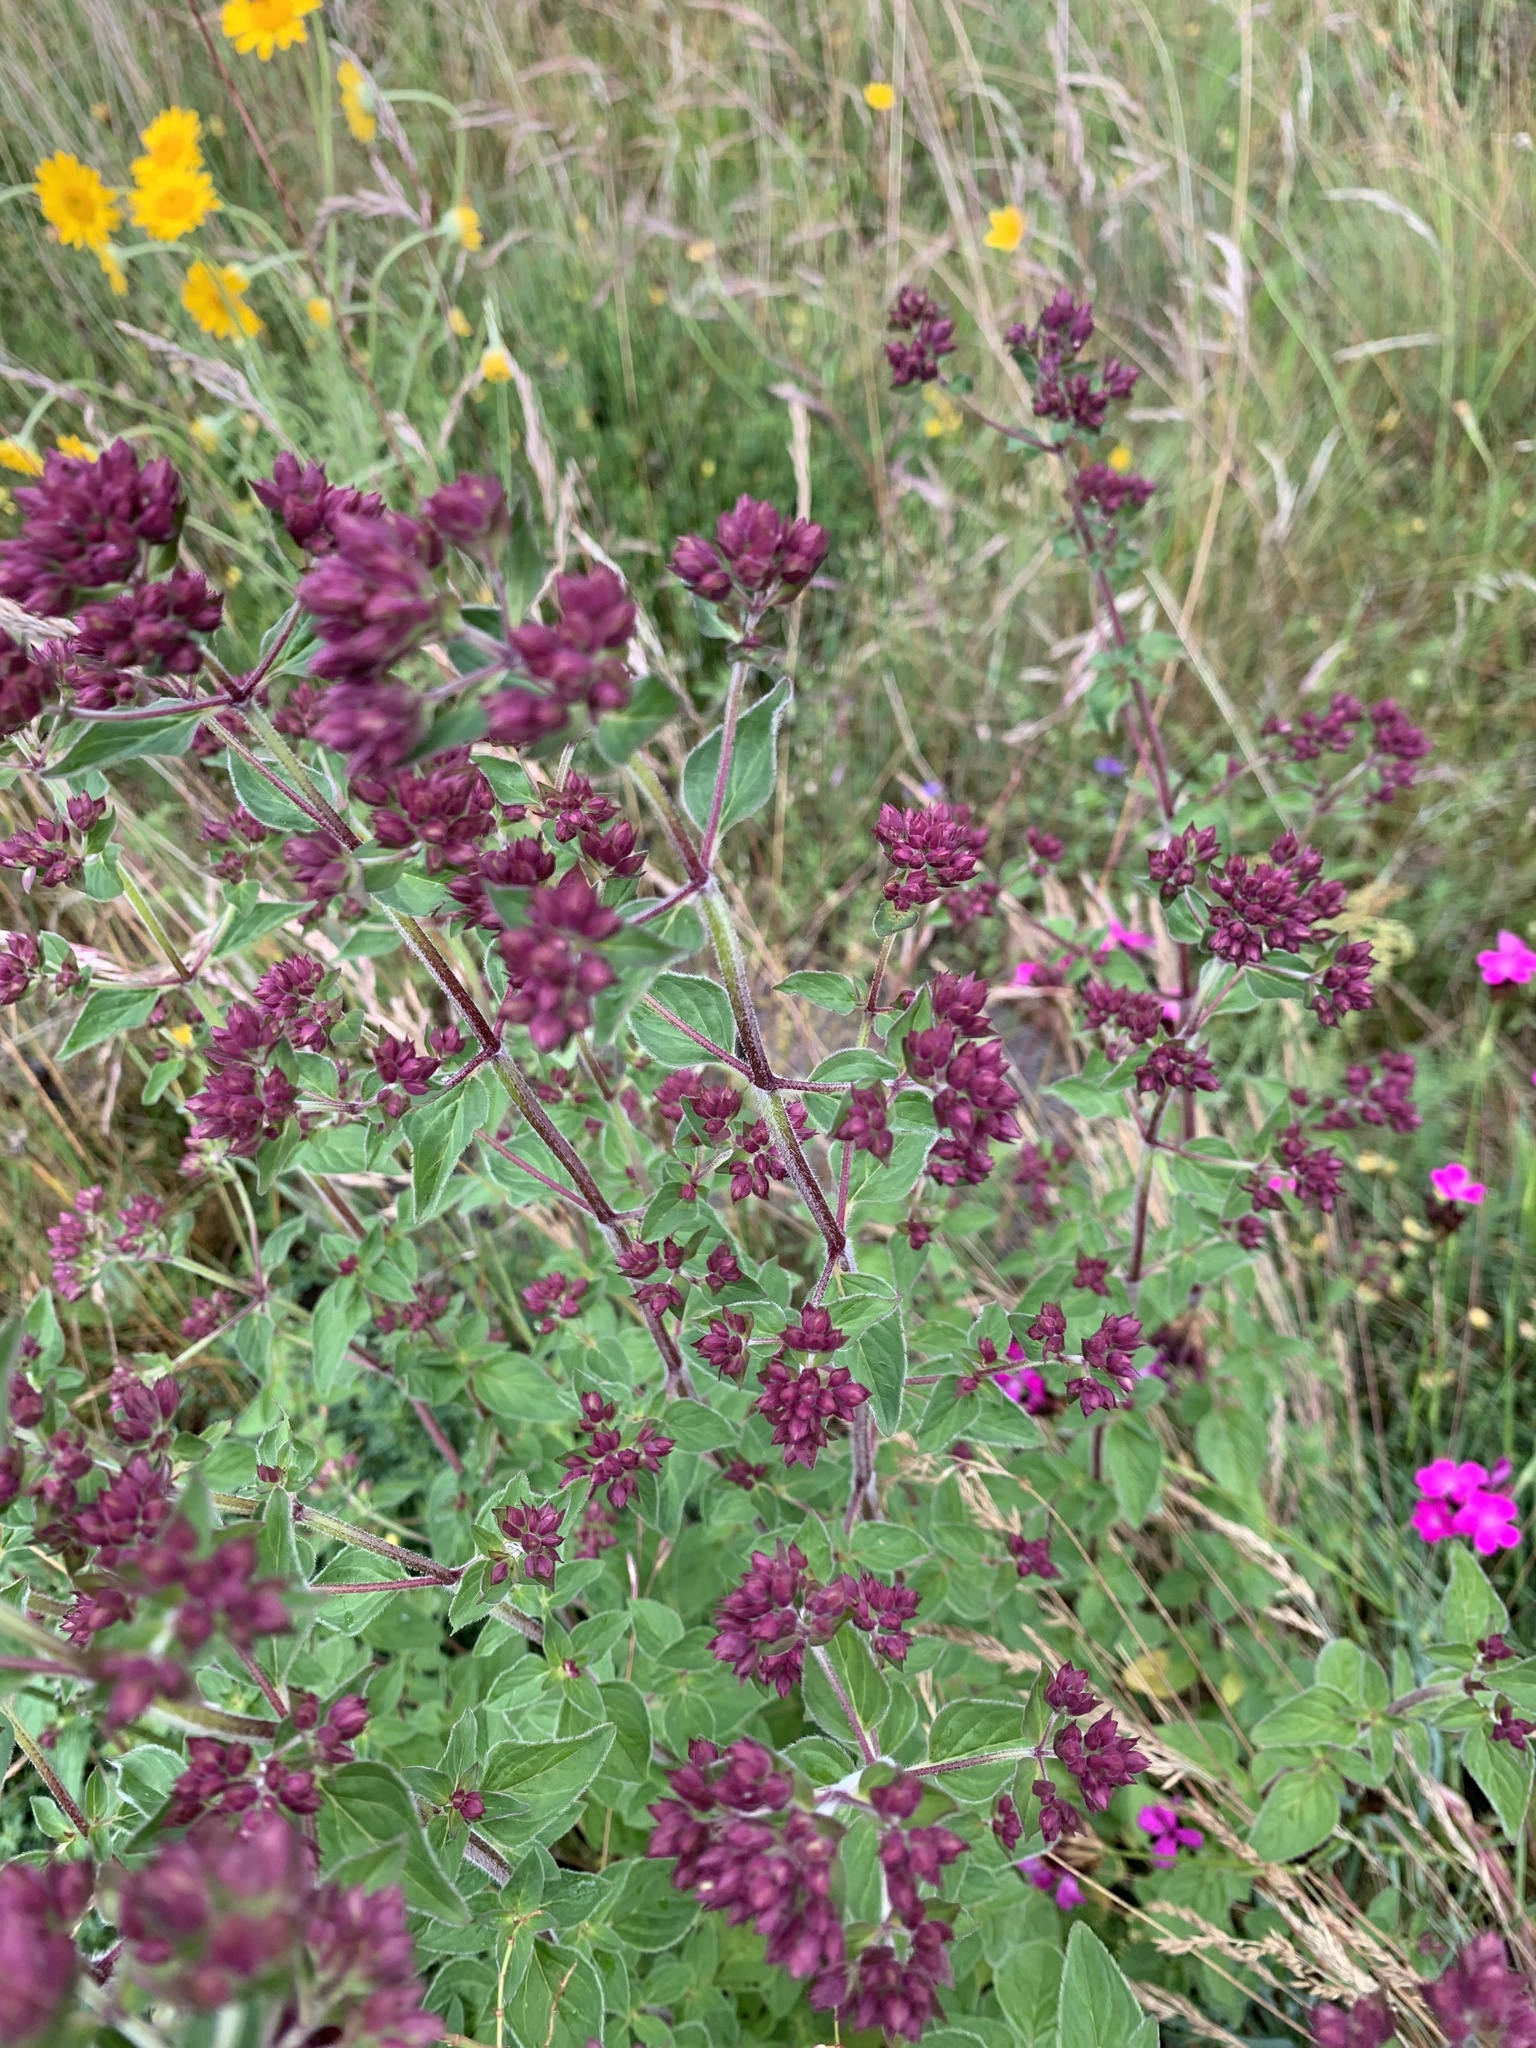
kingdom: Plantae
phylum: Tracheophyta
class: Magnoliopsida
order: Lamiales
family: Lamiaceae
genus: Origanum
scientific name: Origanum vulgare
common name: Wild marjoram
